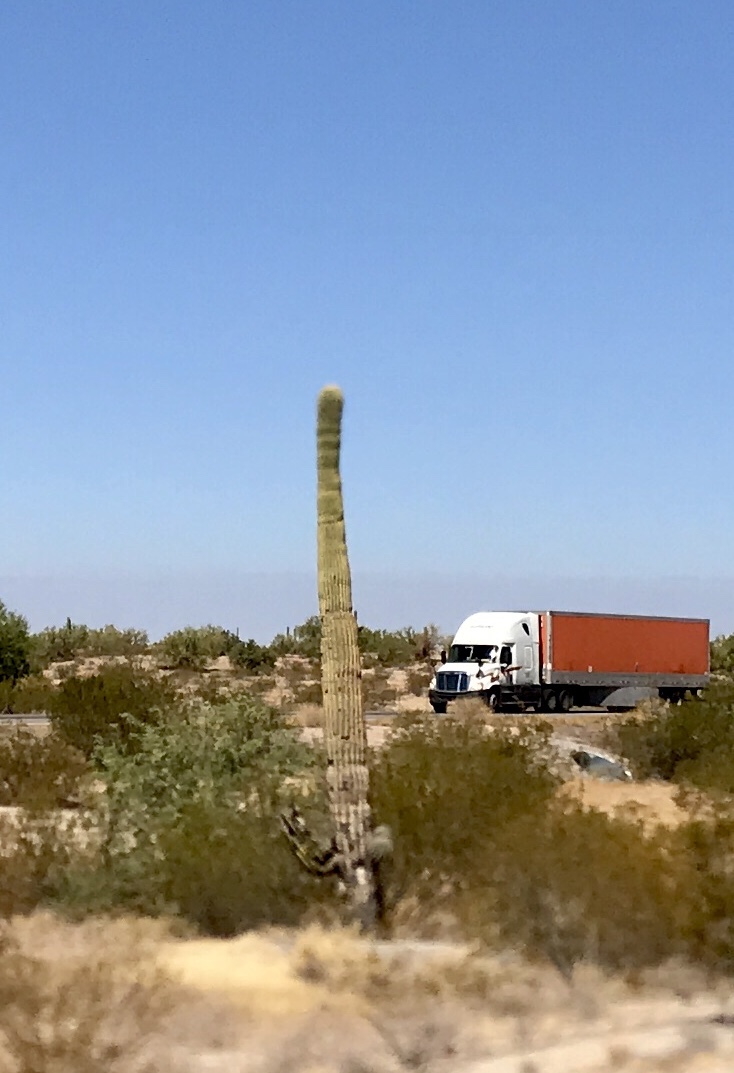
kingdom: Plantae
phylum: Tracheophyta
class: Magnoliopsida
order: Caryophyllales
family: Cactaceae
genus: Carnegiea
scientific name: Carnegiea gigantea
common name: Saguaro
